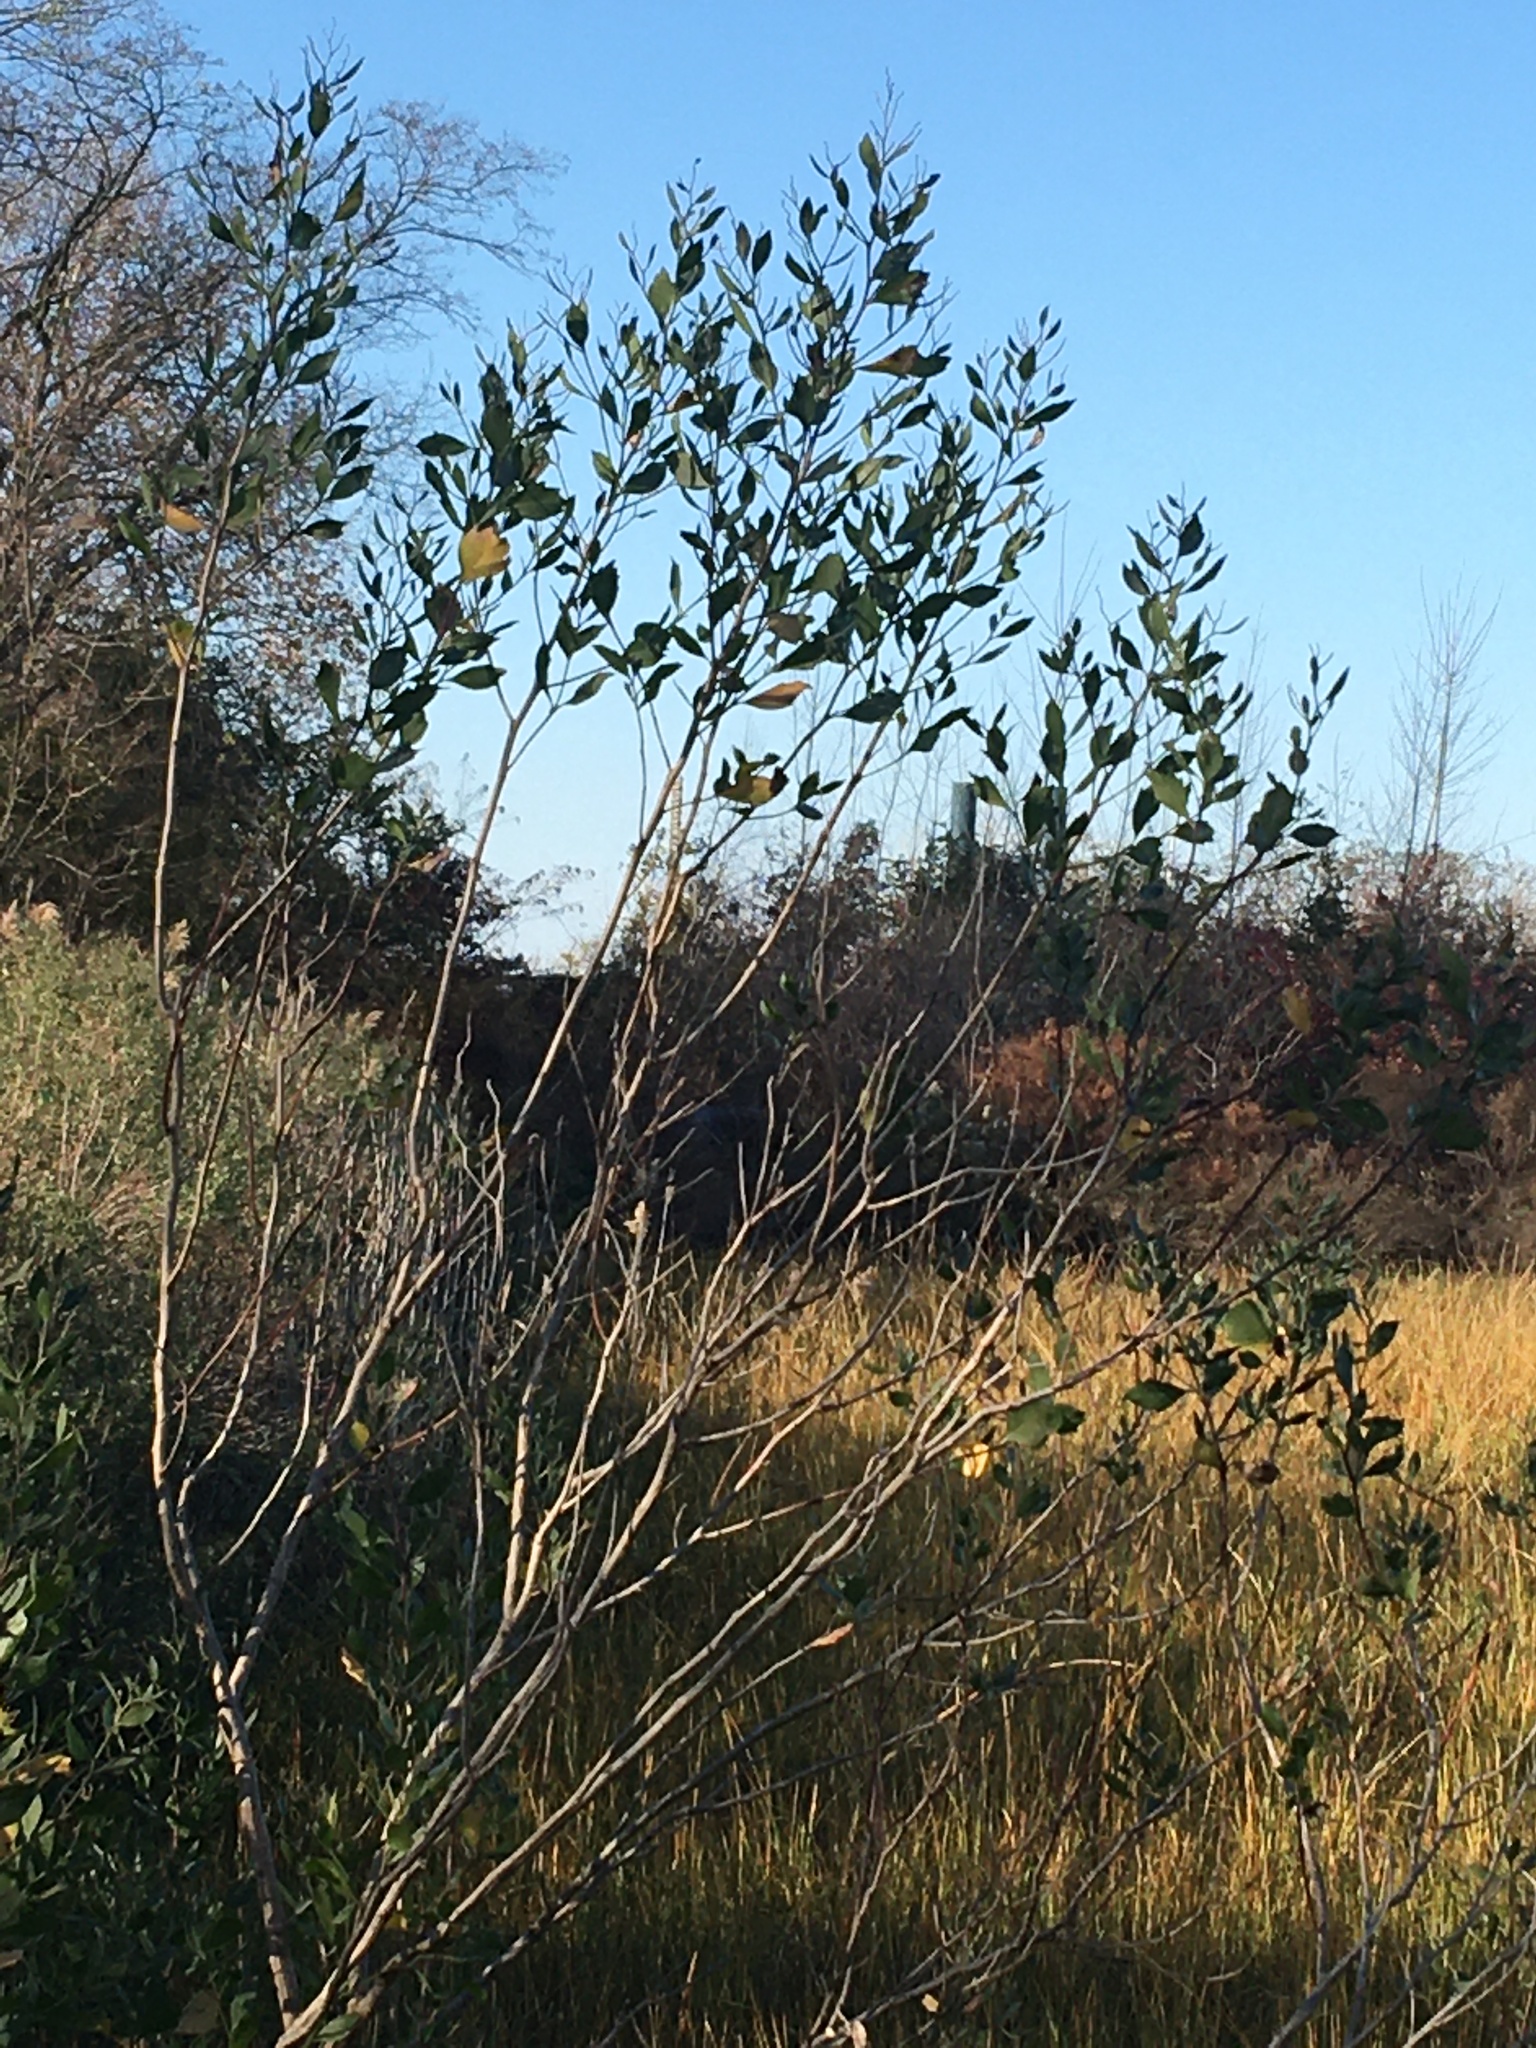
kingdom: Plantae
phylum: Tracheophyta
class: Magnoliopsida
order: Asterales
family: Asteraceae
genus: Baccharis
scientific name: Baccharis halimifolia
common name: Eastern baccharis
